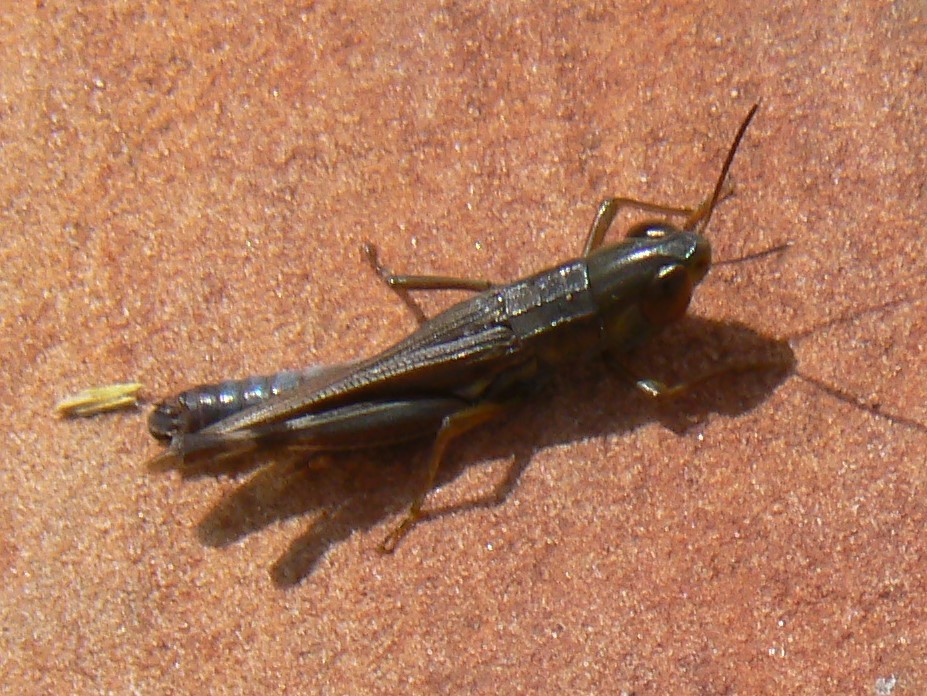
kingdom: Animalia
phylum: Arthropoda
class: Insecta
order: Orthoptera
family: Acrididae
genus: Rusurplia
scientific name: Rusurplia tristis
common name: Black grasshopper
